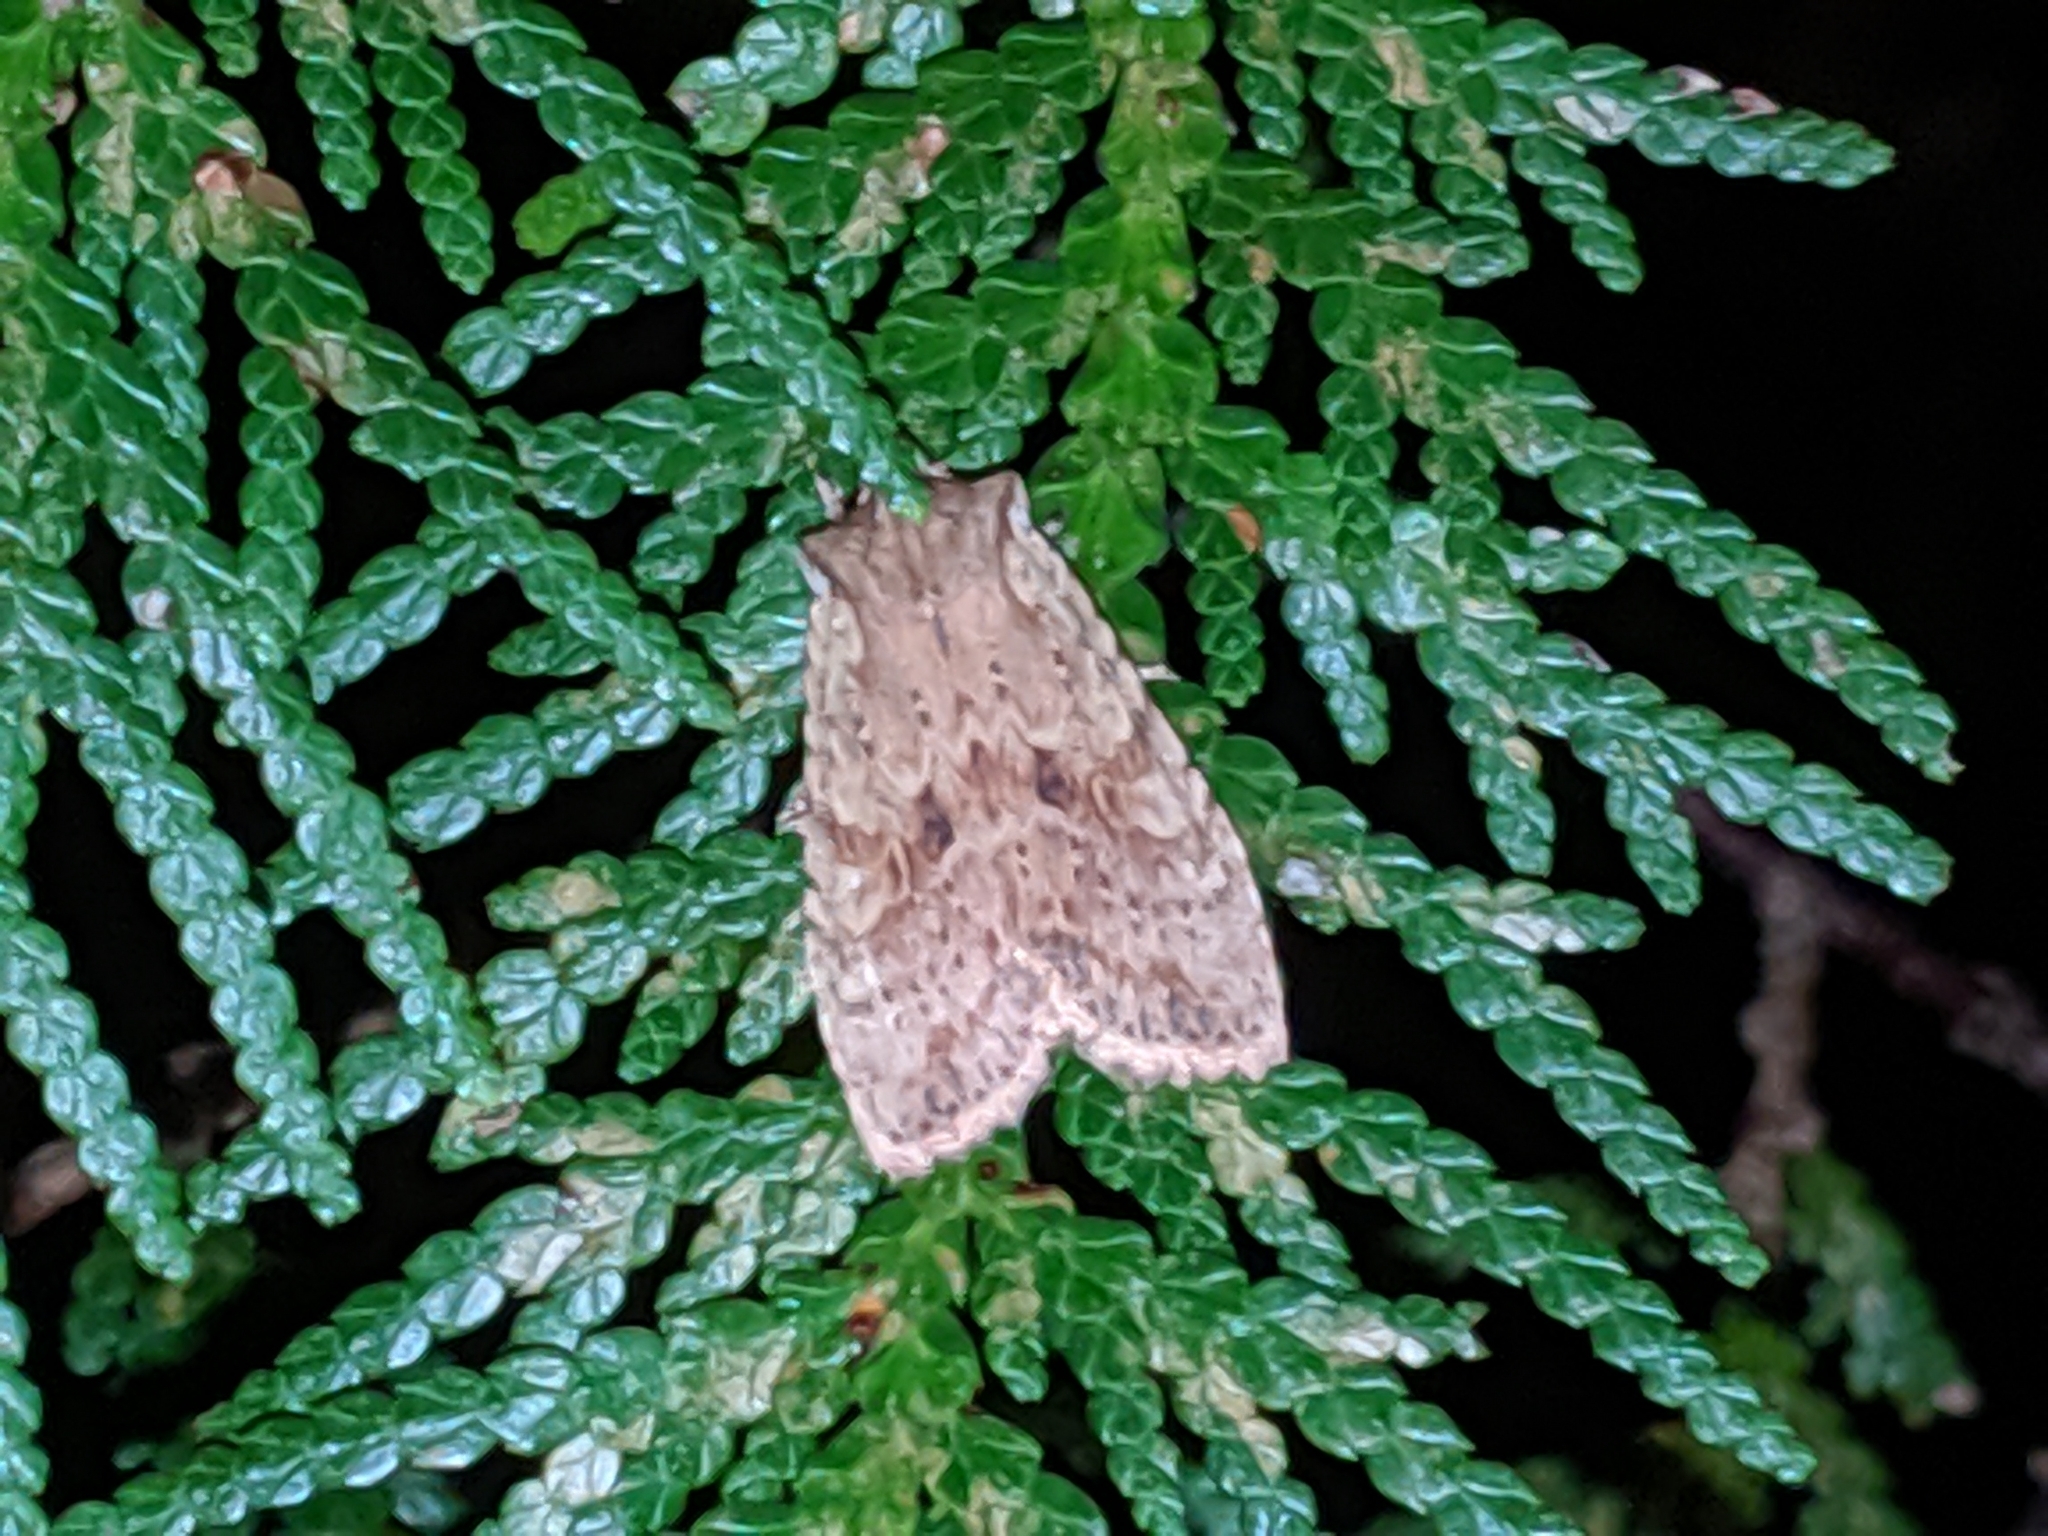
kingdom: Animalia
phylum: Arthropoda
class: Insecta
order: Lepidoptera
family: Noctuidae
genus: Lithophane
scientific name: Lithophane bethunei
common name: Bethune's pinion moth
